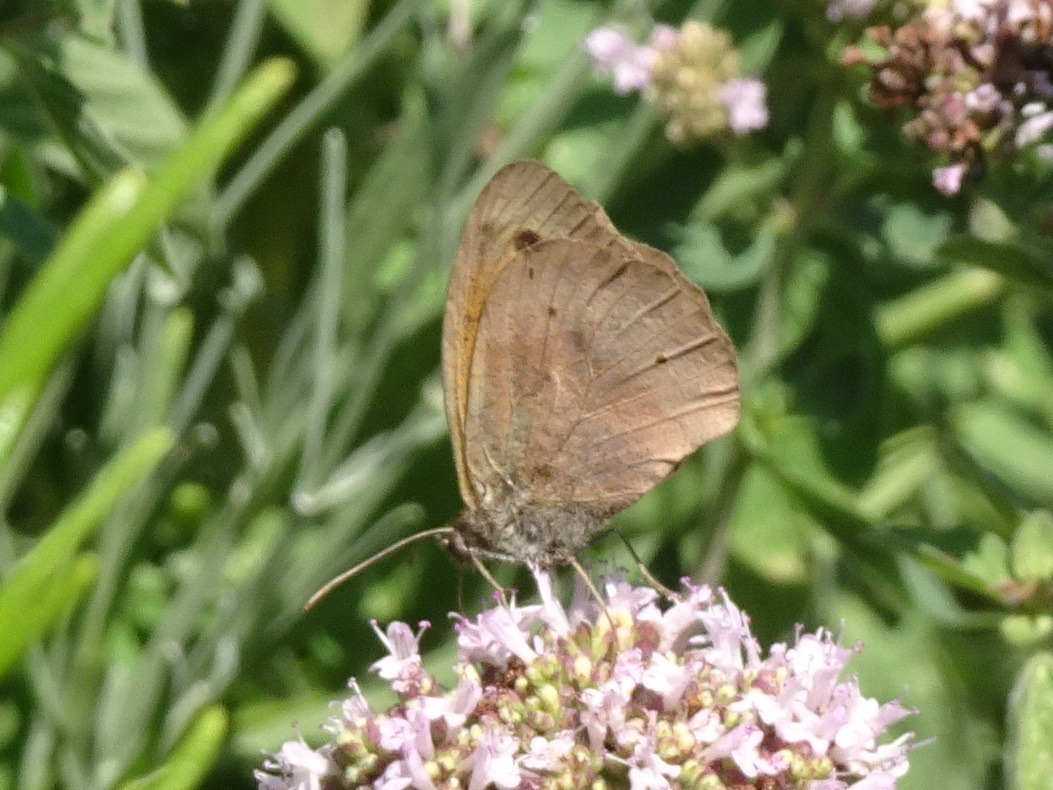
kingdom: Animalia
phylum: Arthropoda
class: Insecta
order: Lepidoptera
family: Nymphalidae
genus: Maniola
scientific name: Maniola jurtina
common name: Meadow brown
